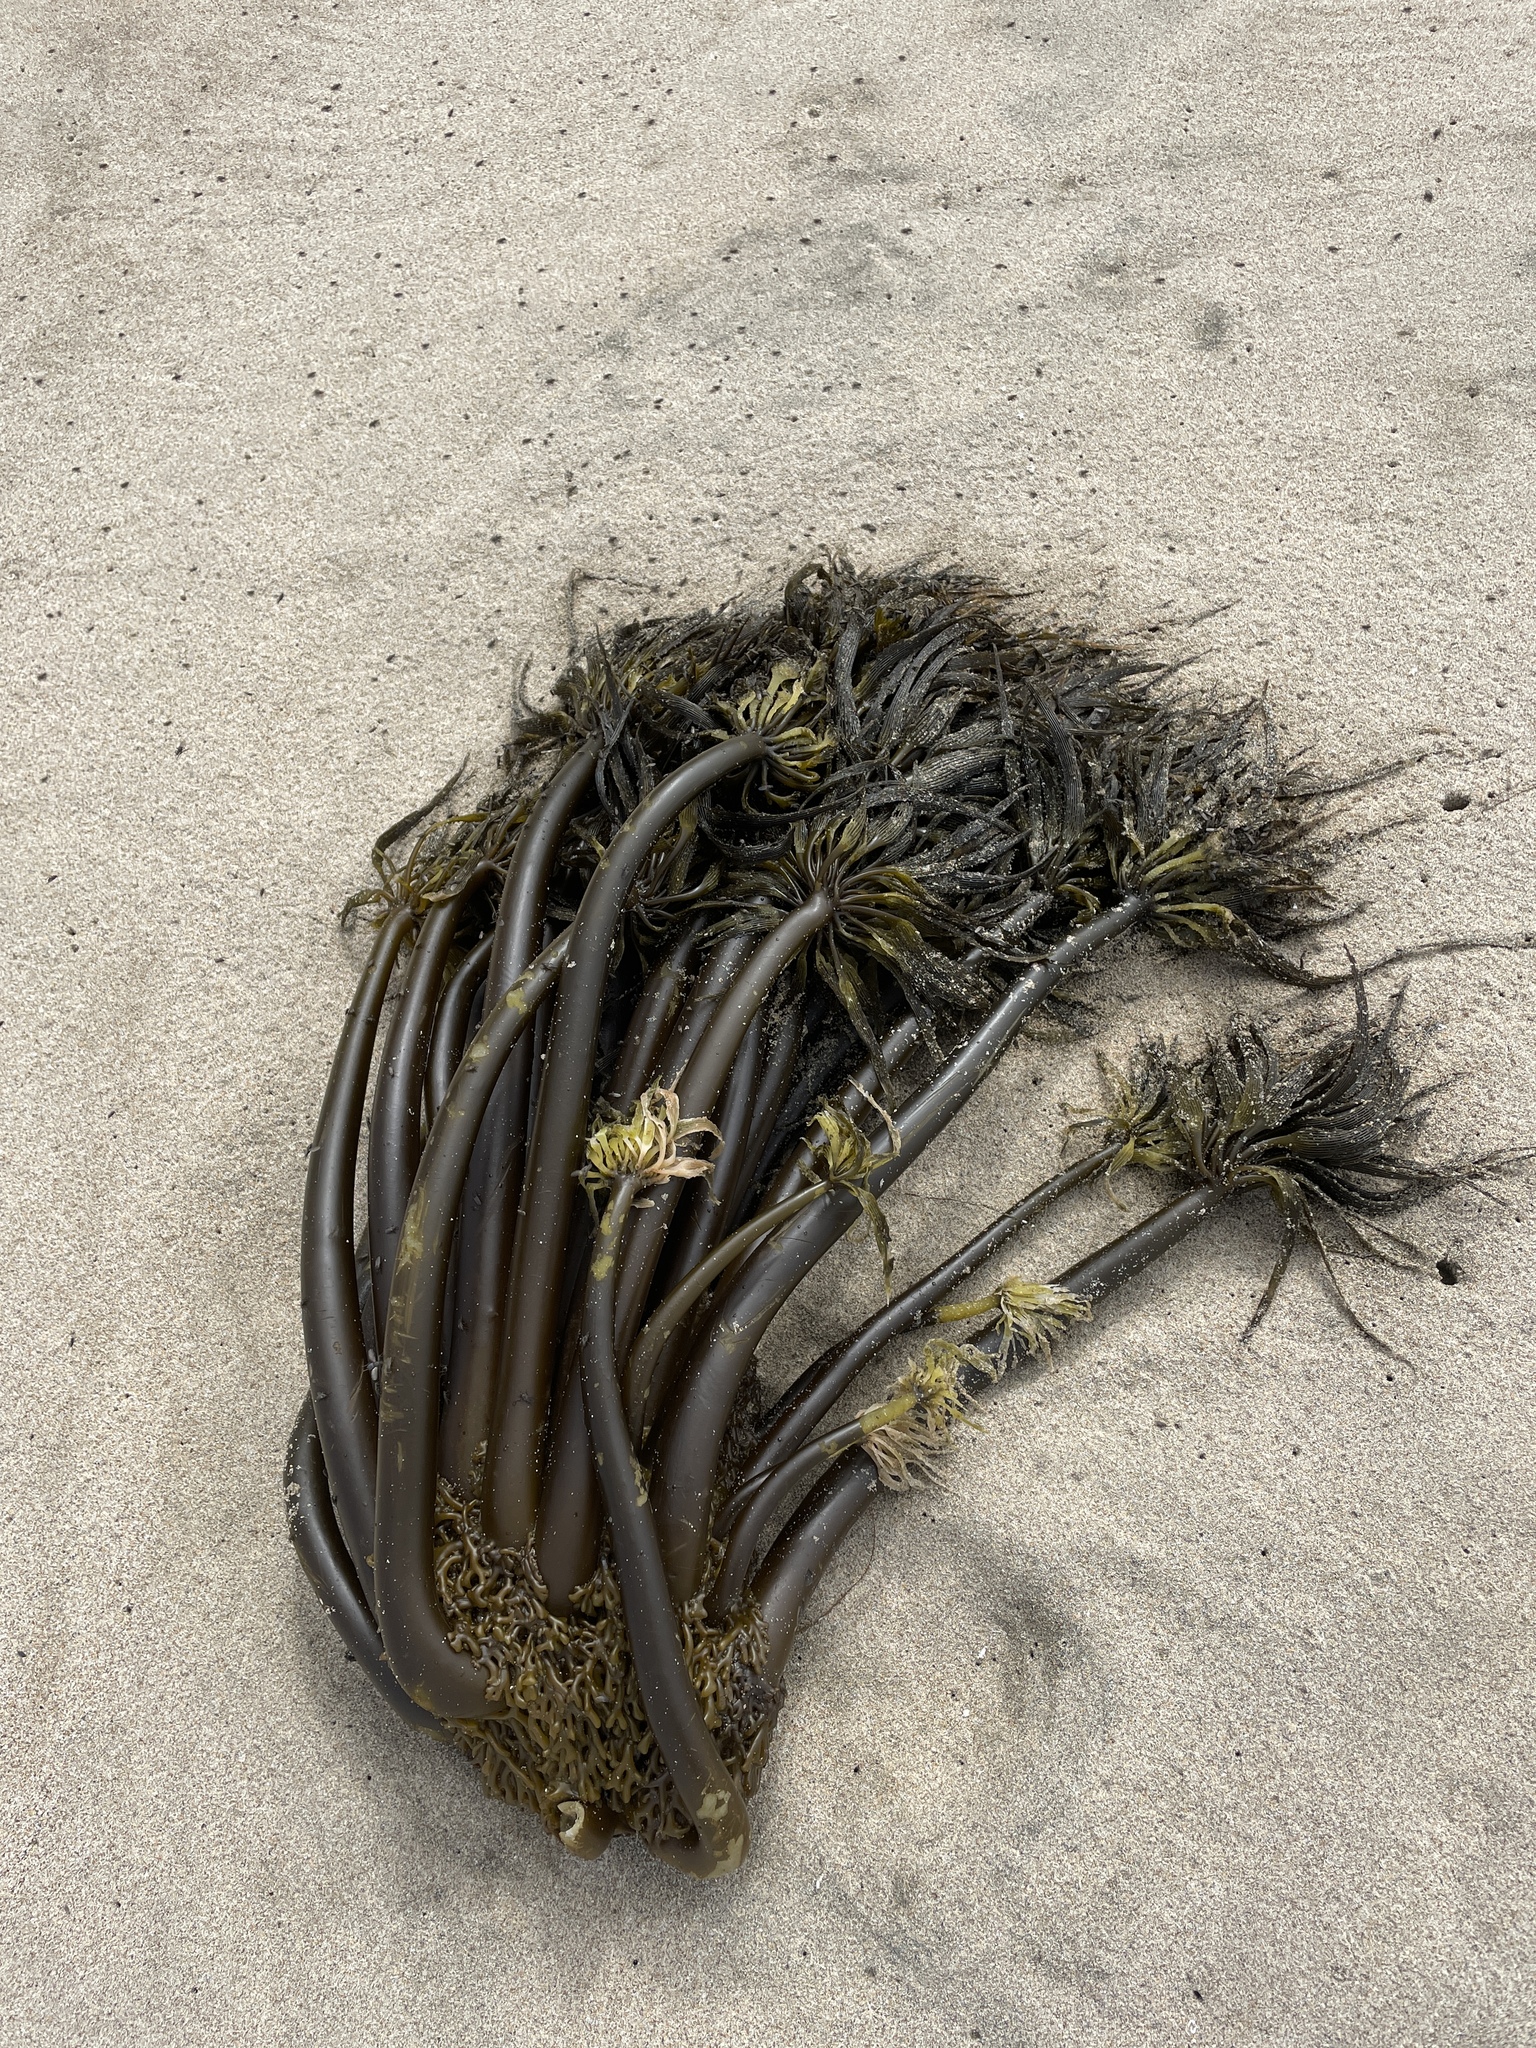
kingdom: Chromista
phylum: Ochrophyta
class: Phaeophyceae
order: Laminariales
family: Laminariaceae
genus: Postelsia
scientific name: Postelsia palmiformis
